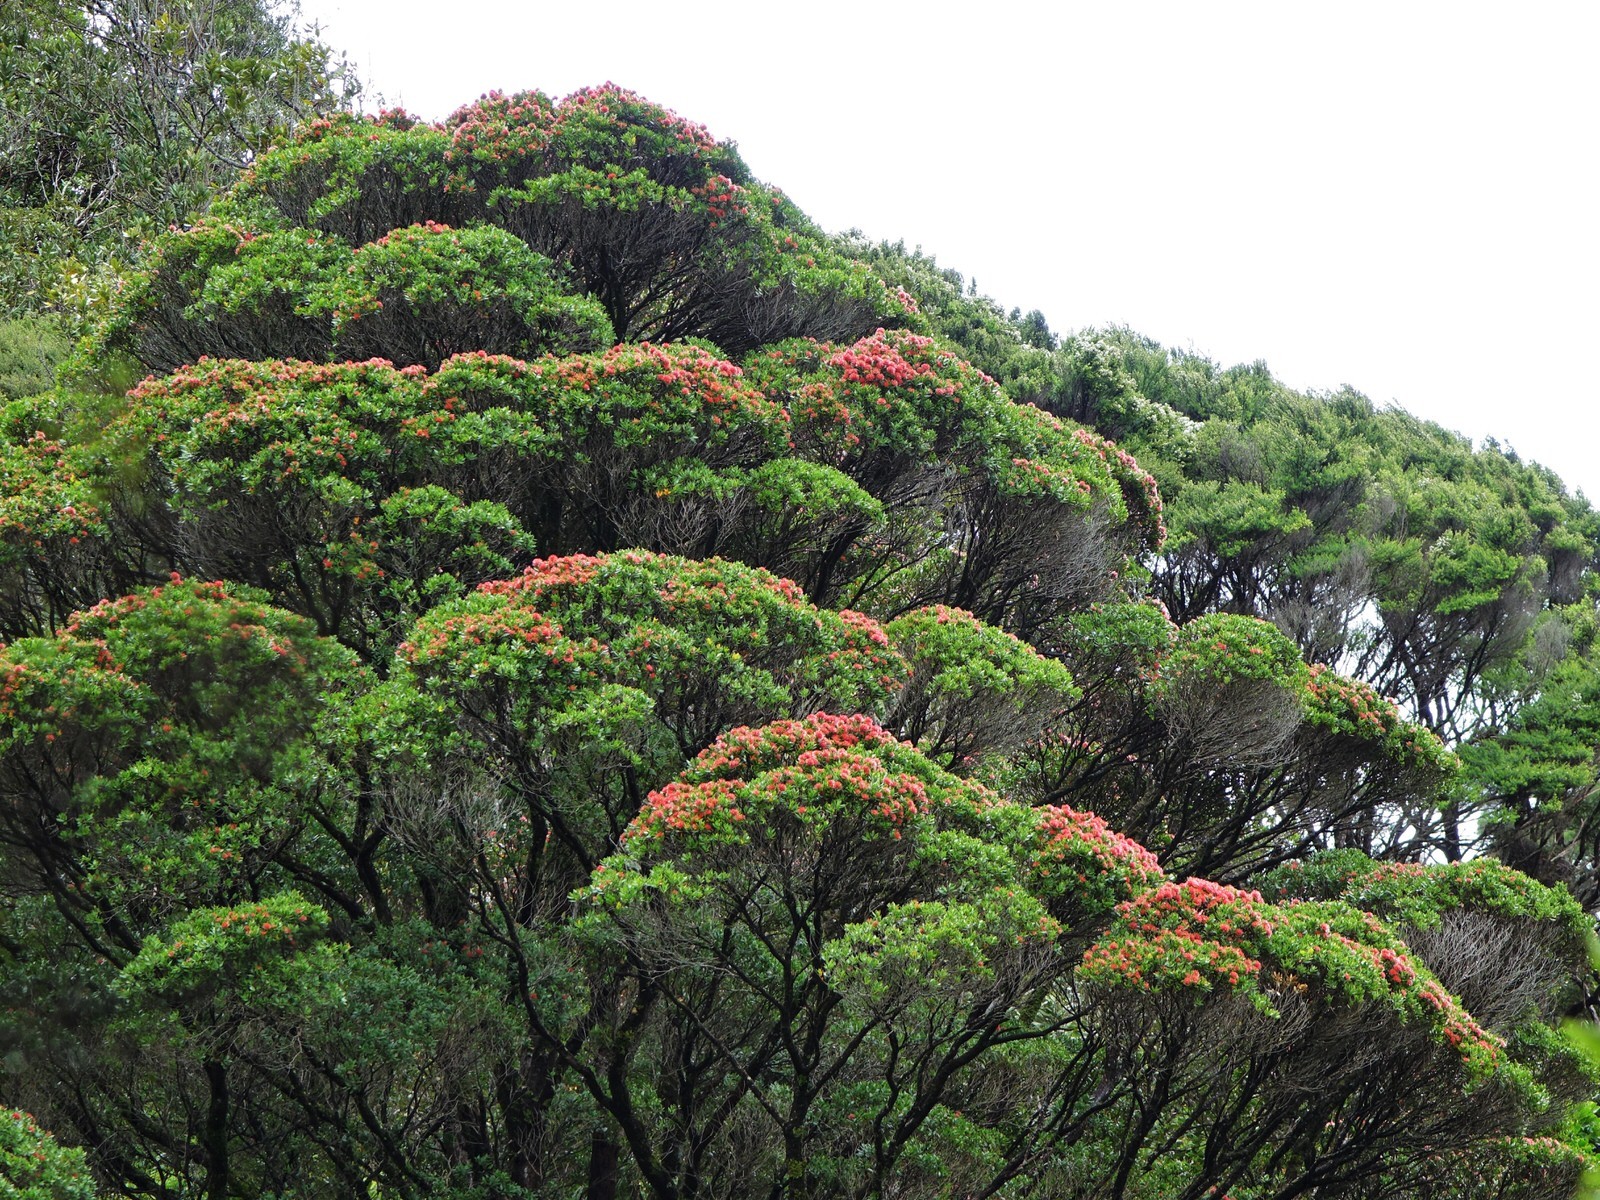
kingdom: Plantae
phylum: Tracheophyta
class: Magnoliopsida
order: Myrtales
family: Myrtaceae
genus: Metrosideros
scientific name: Metrosideros robusta
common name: Northern rata
